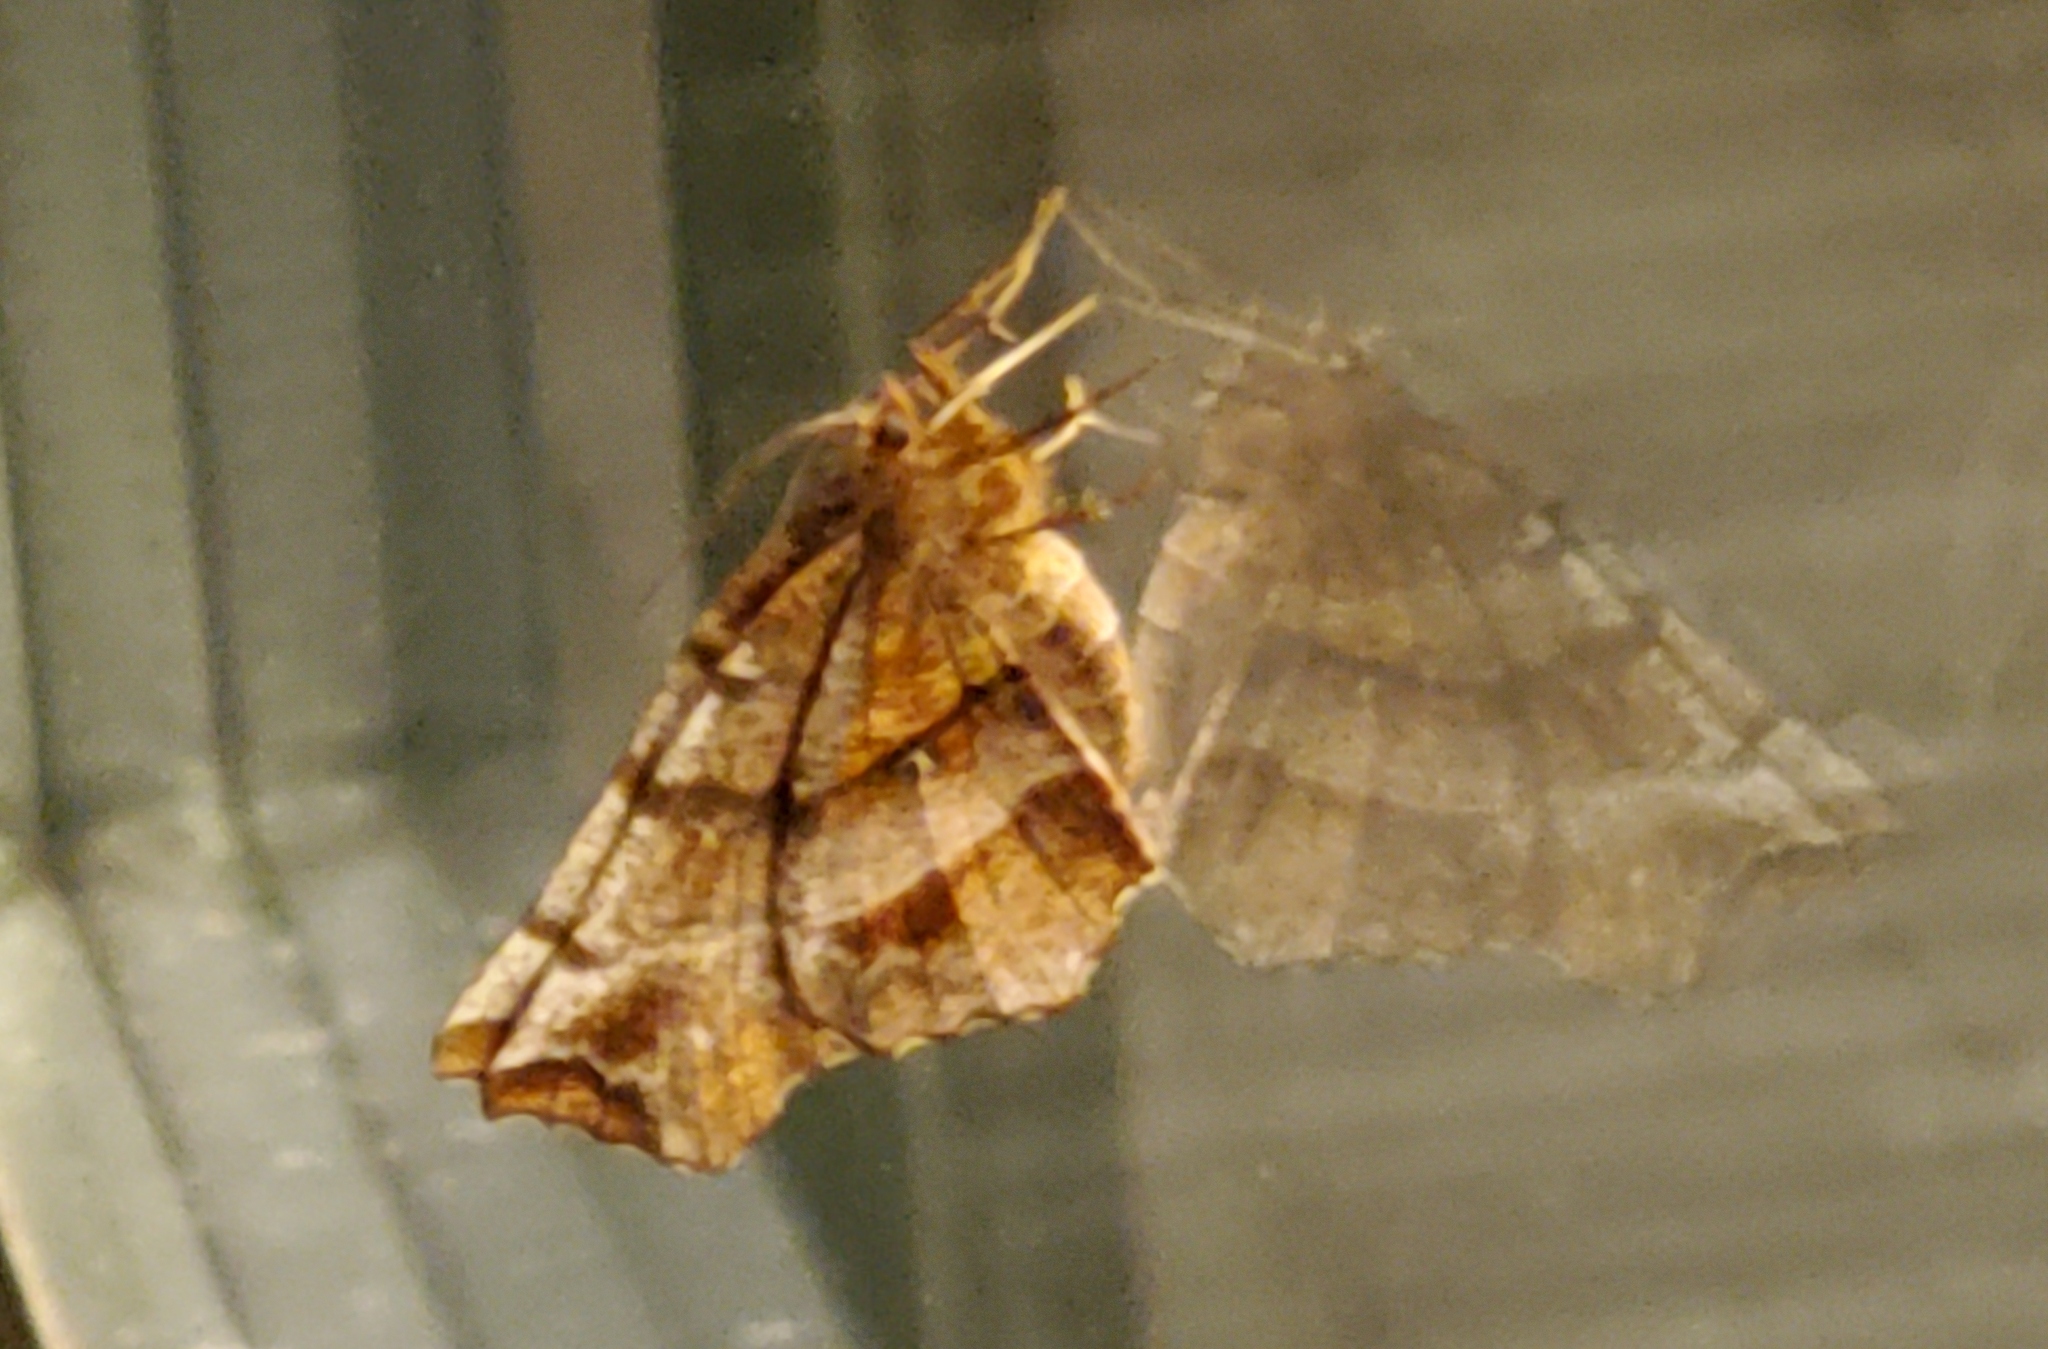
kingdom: Animalia
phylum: Arthropoda
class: Insecta
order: Lepidoptera
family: Geometridae
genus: Selenia
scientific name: Selenia alciphearia
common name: Brown-tipped thorn
